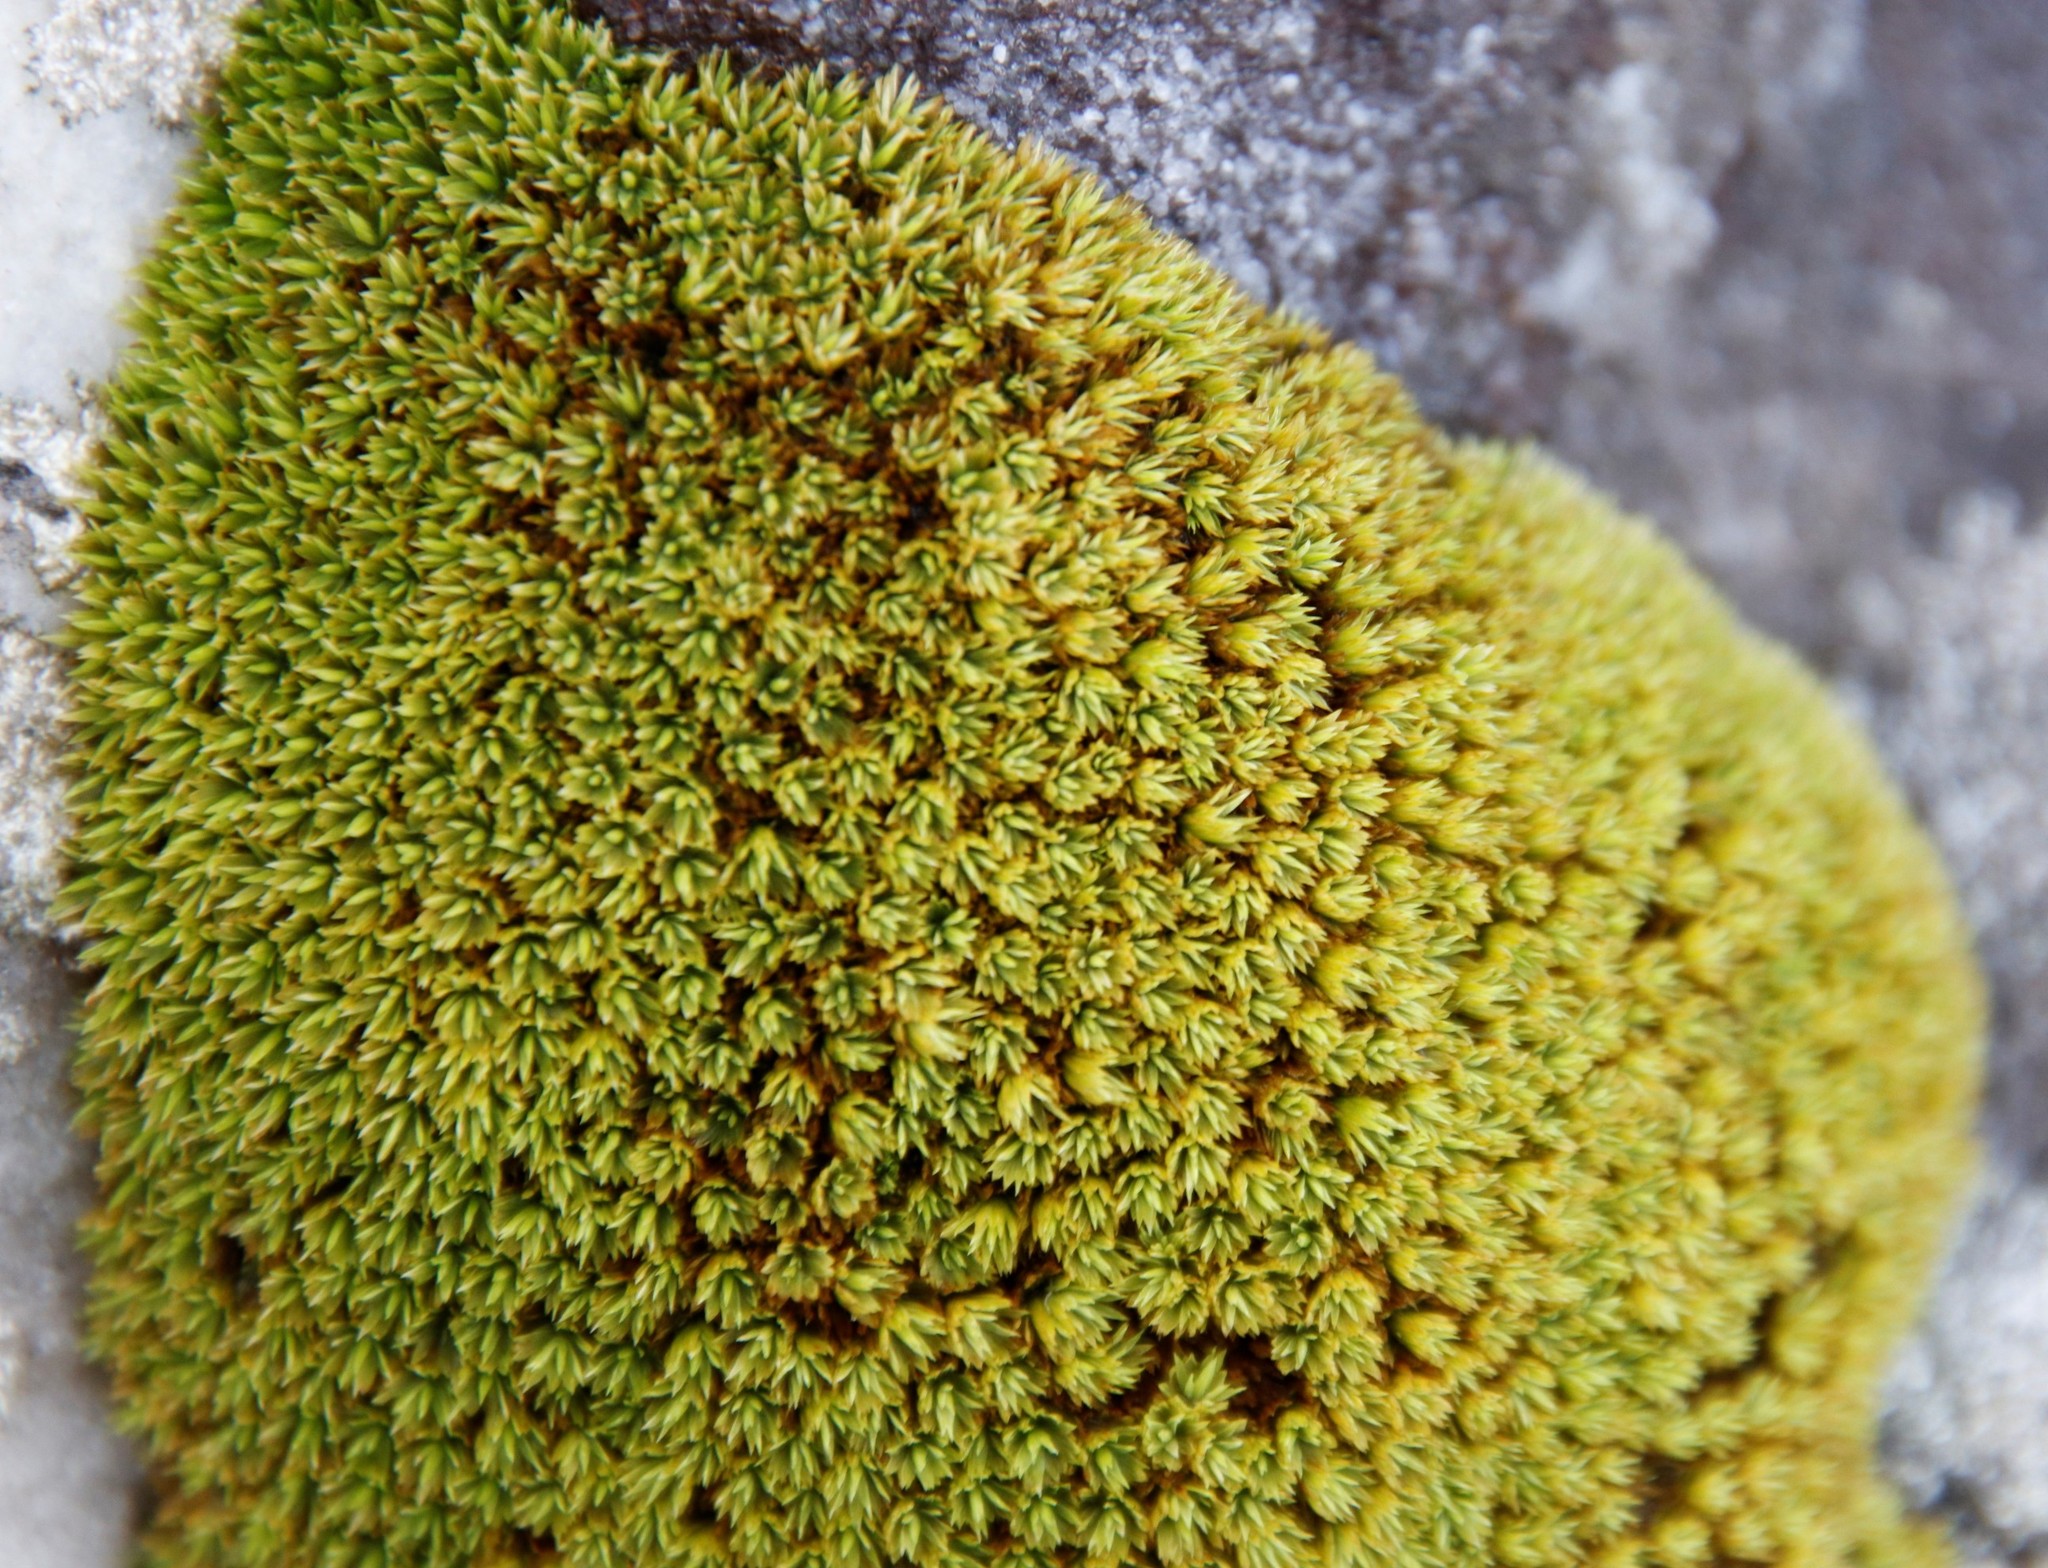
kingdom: Plantae
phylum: Bryophyta
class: Bryopsida
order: Dicranales
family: Hypodontiaceae
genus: Hypodontium
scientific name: Hypodontium pomiforme
